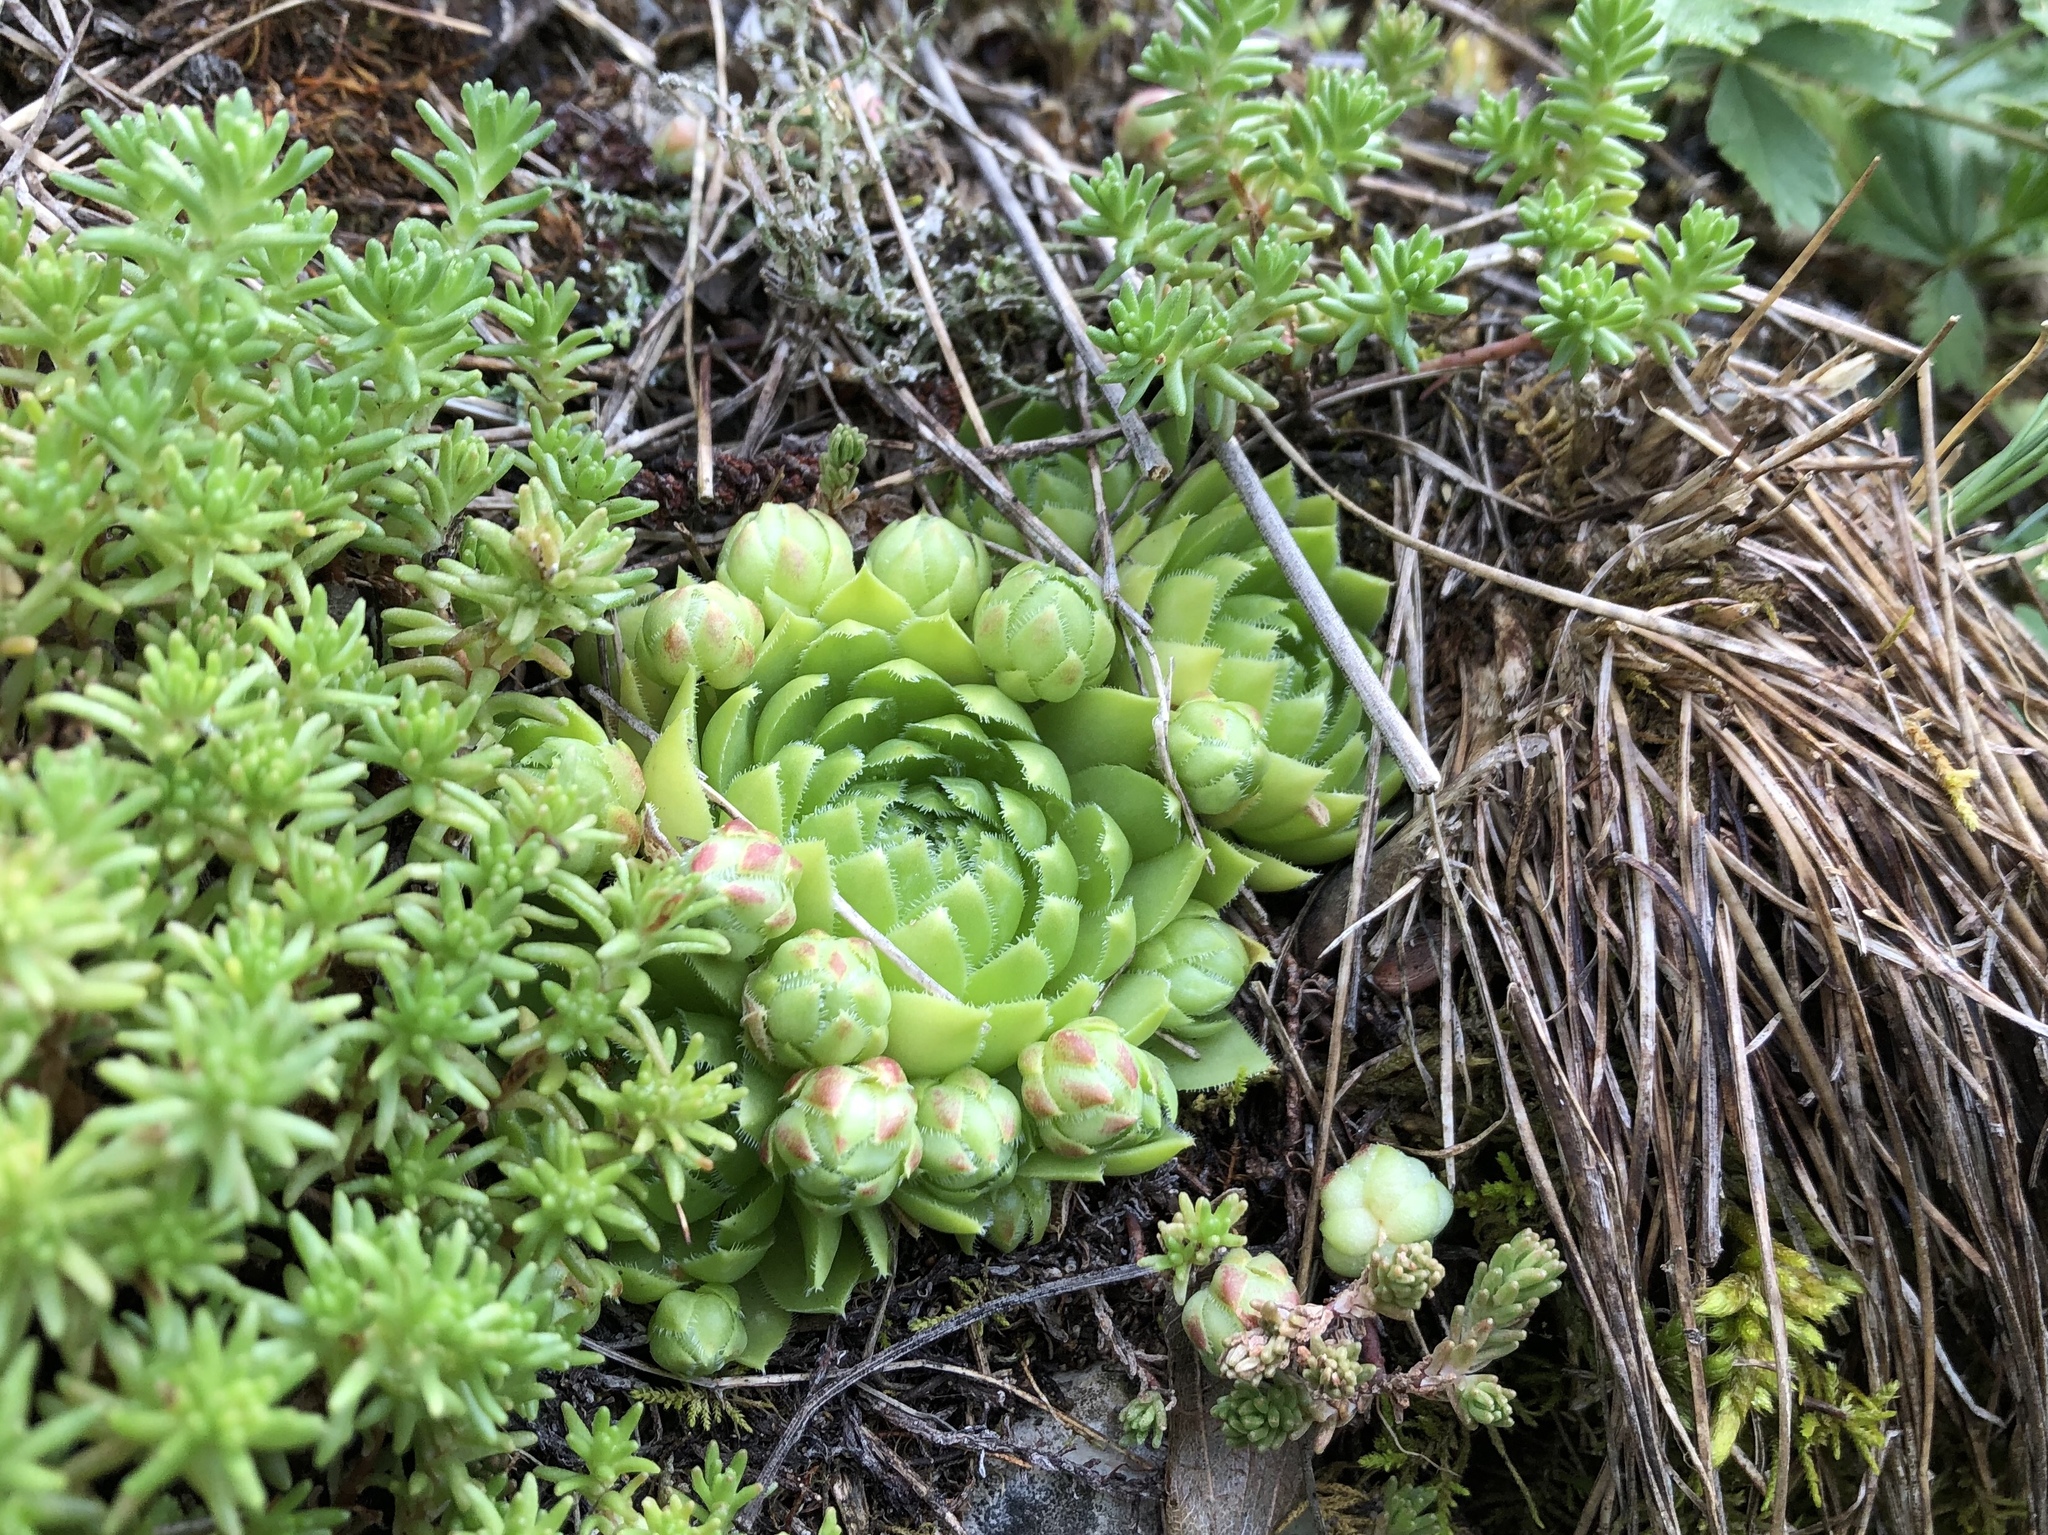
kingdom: Plantae
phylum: Tracheophyta
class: Magnoliopsida
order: Saxifragales
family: Crassulaceae
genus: Sempervivum
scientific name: Sempervivum globiferum
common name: Rolling hen-and-chicks
